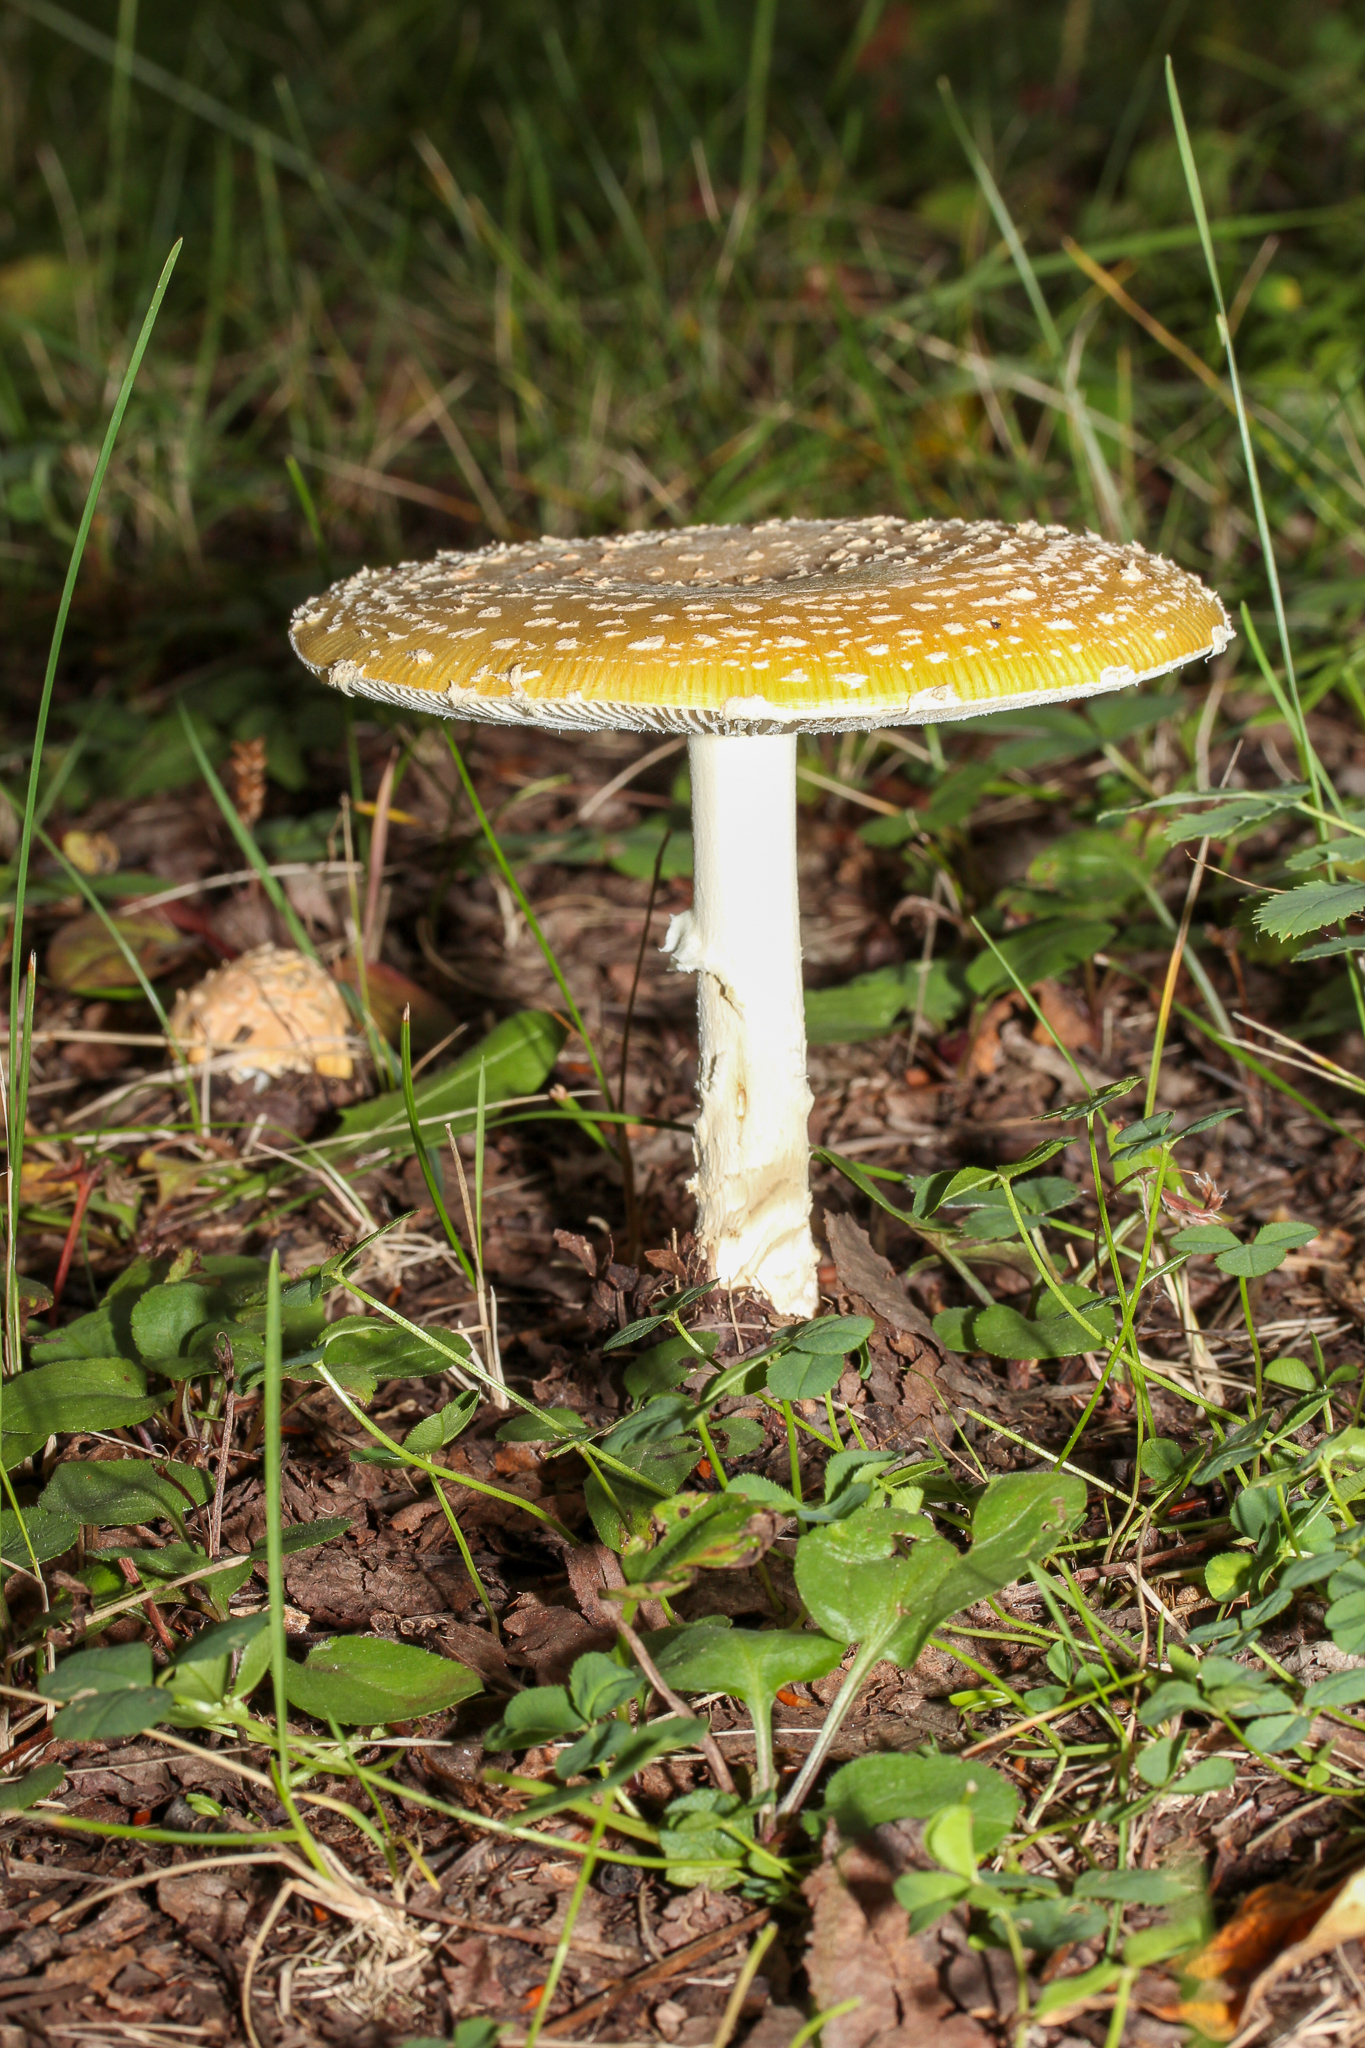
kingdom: Fungi
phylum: Basidiomycota
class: Agaricomycetes
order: Agaricales
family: Amanitaceae
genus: Amanita
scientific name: Amanita muscaria
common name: Fly agaric
